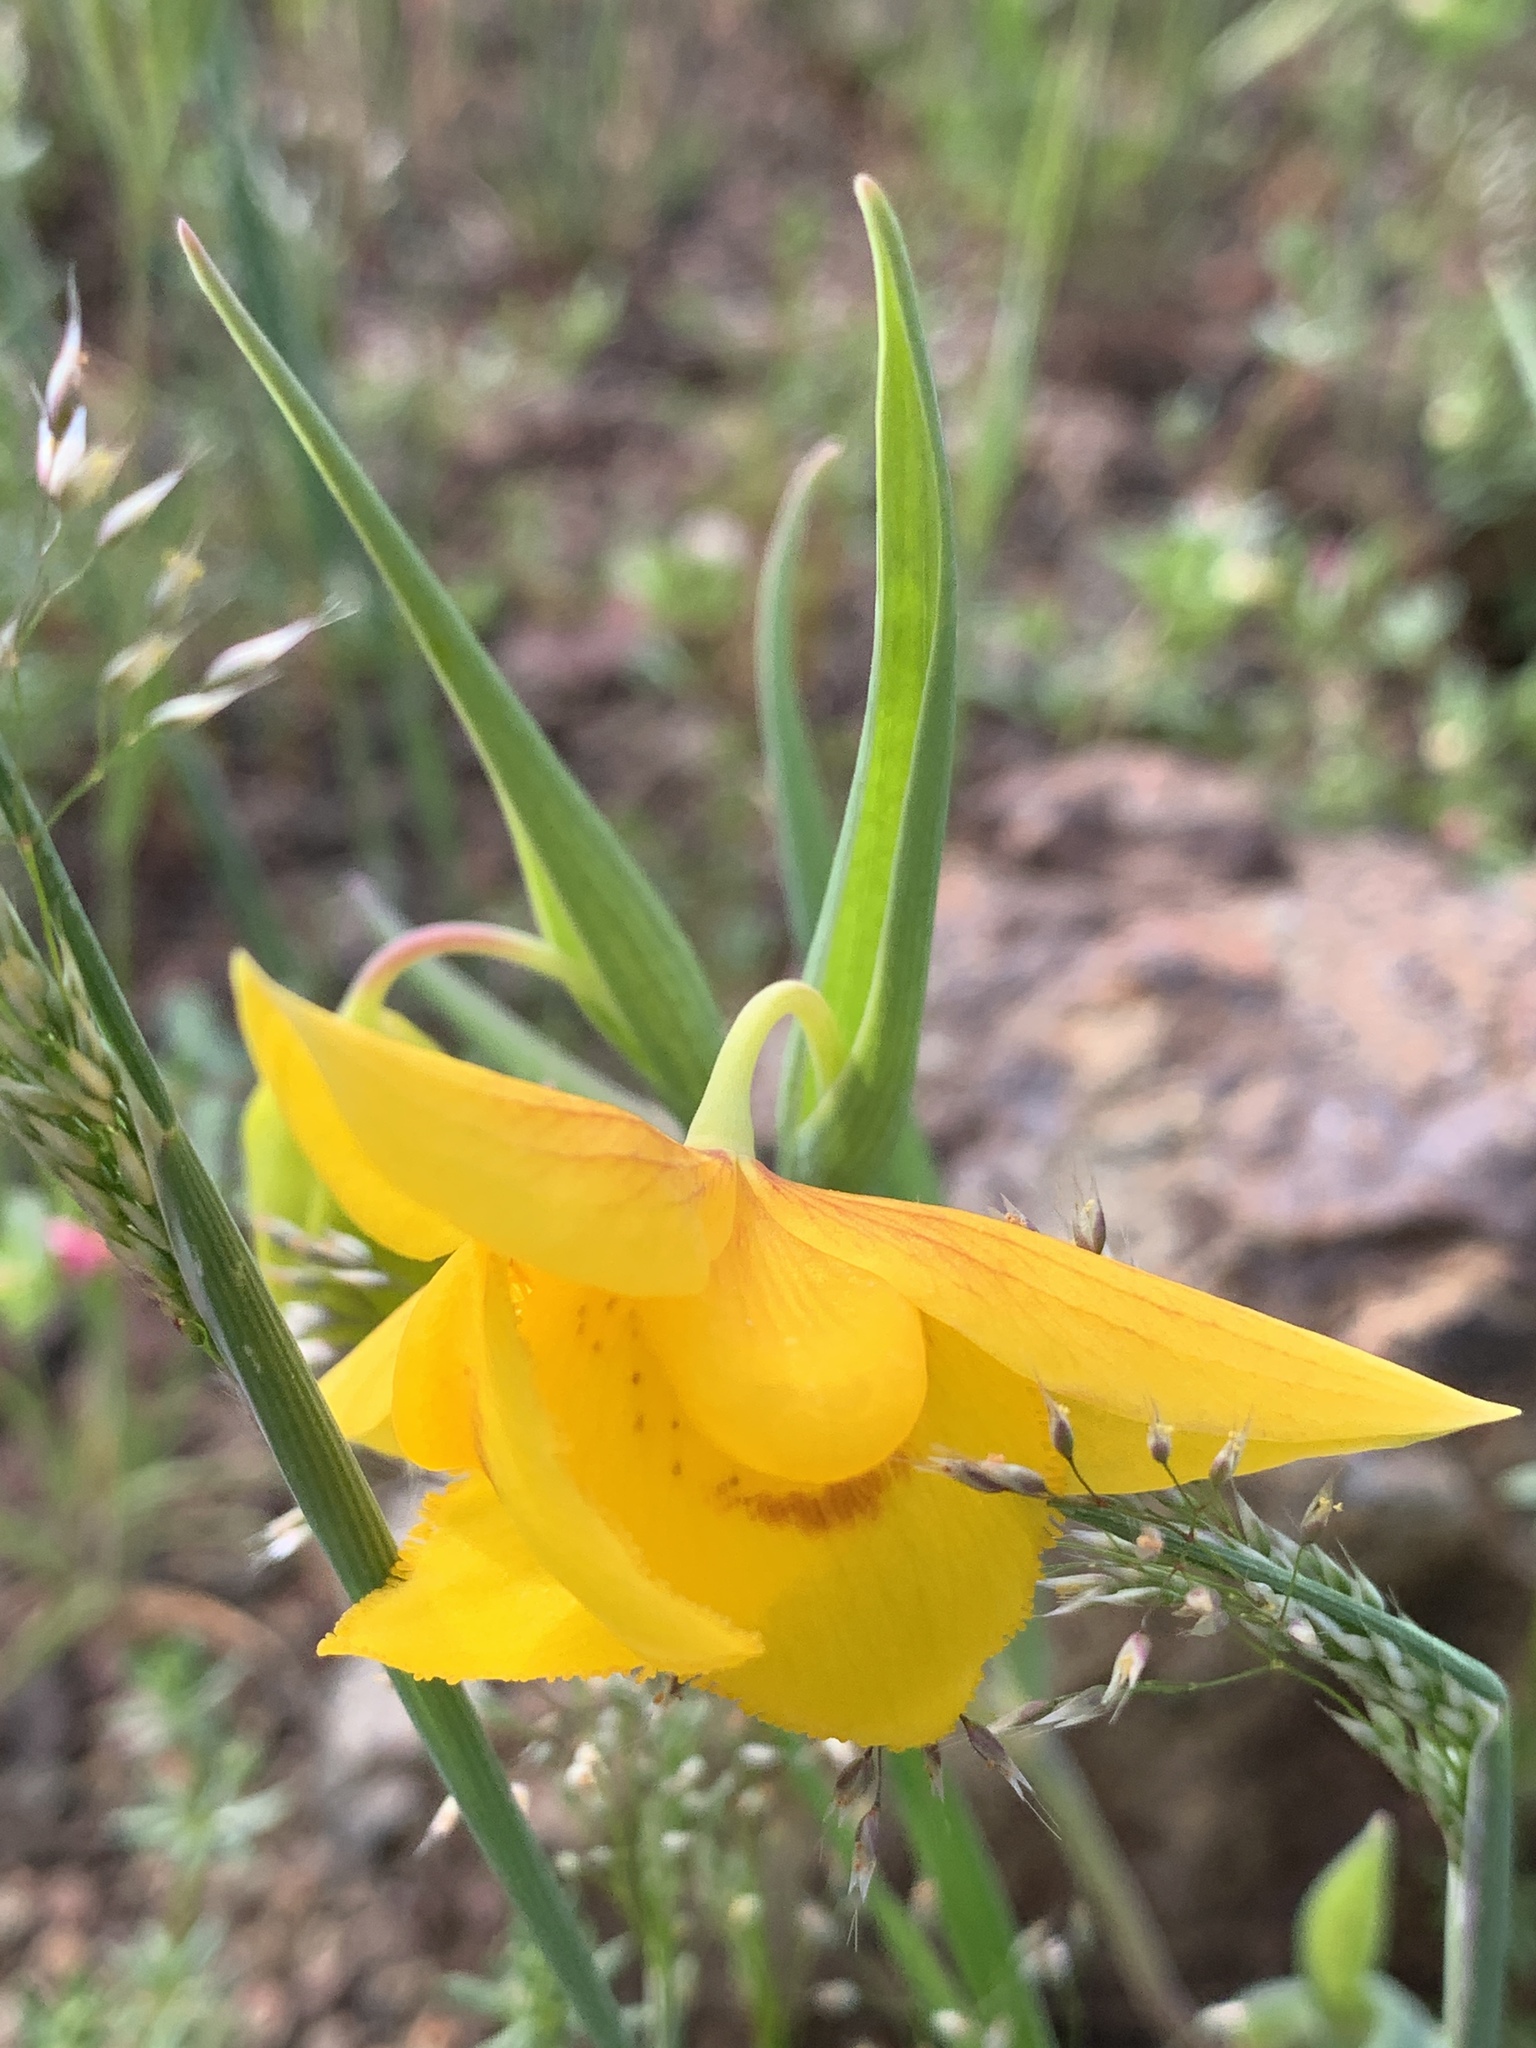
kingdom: Plantae
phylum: Tracheophyta
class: Liliopsida
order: Liliales
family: Liliaceae
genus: Calochortus
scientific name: Calochortus amabilis
